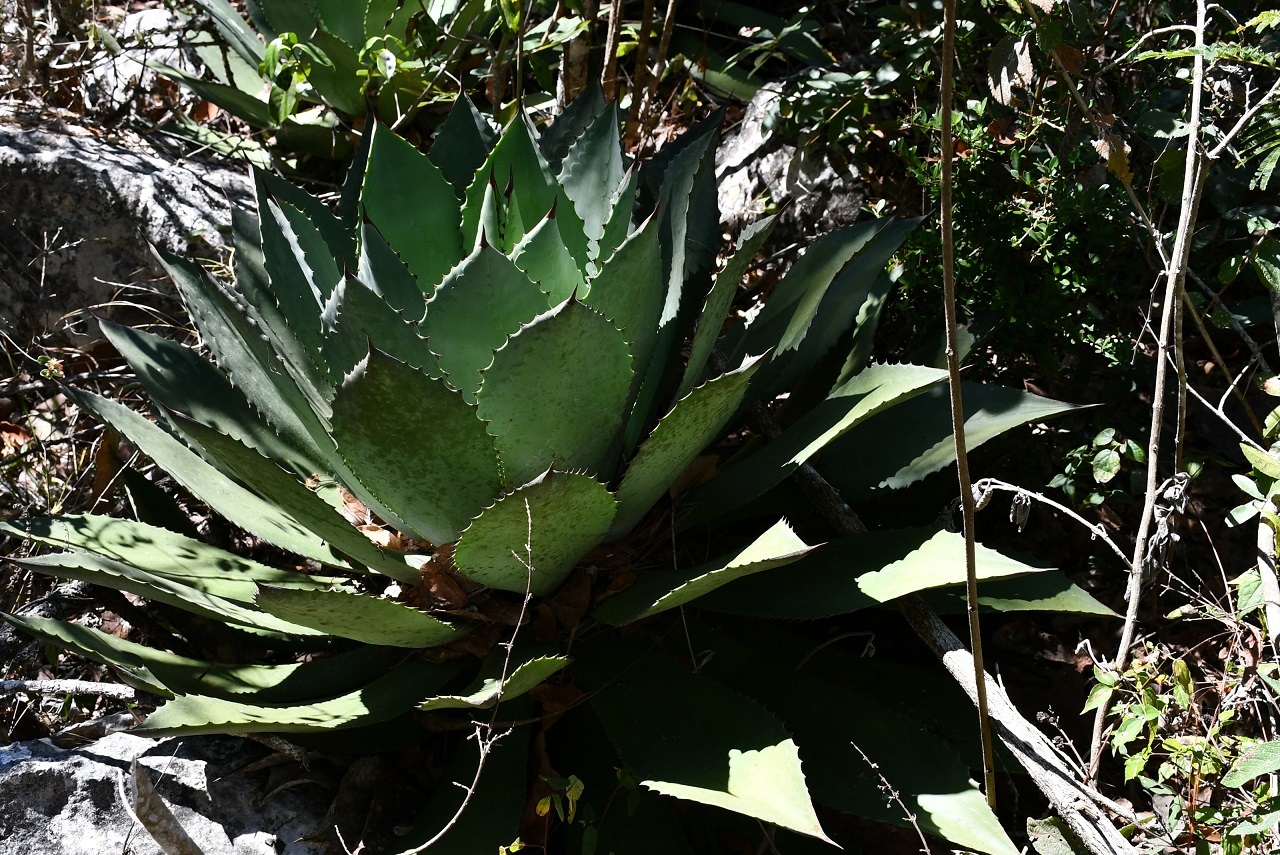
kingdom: Plantae
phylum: Tracheophyta
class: Liliopsida
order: Asparagales
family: Asparagaceae
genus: Agave
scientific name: Agave chiapensis
